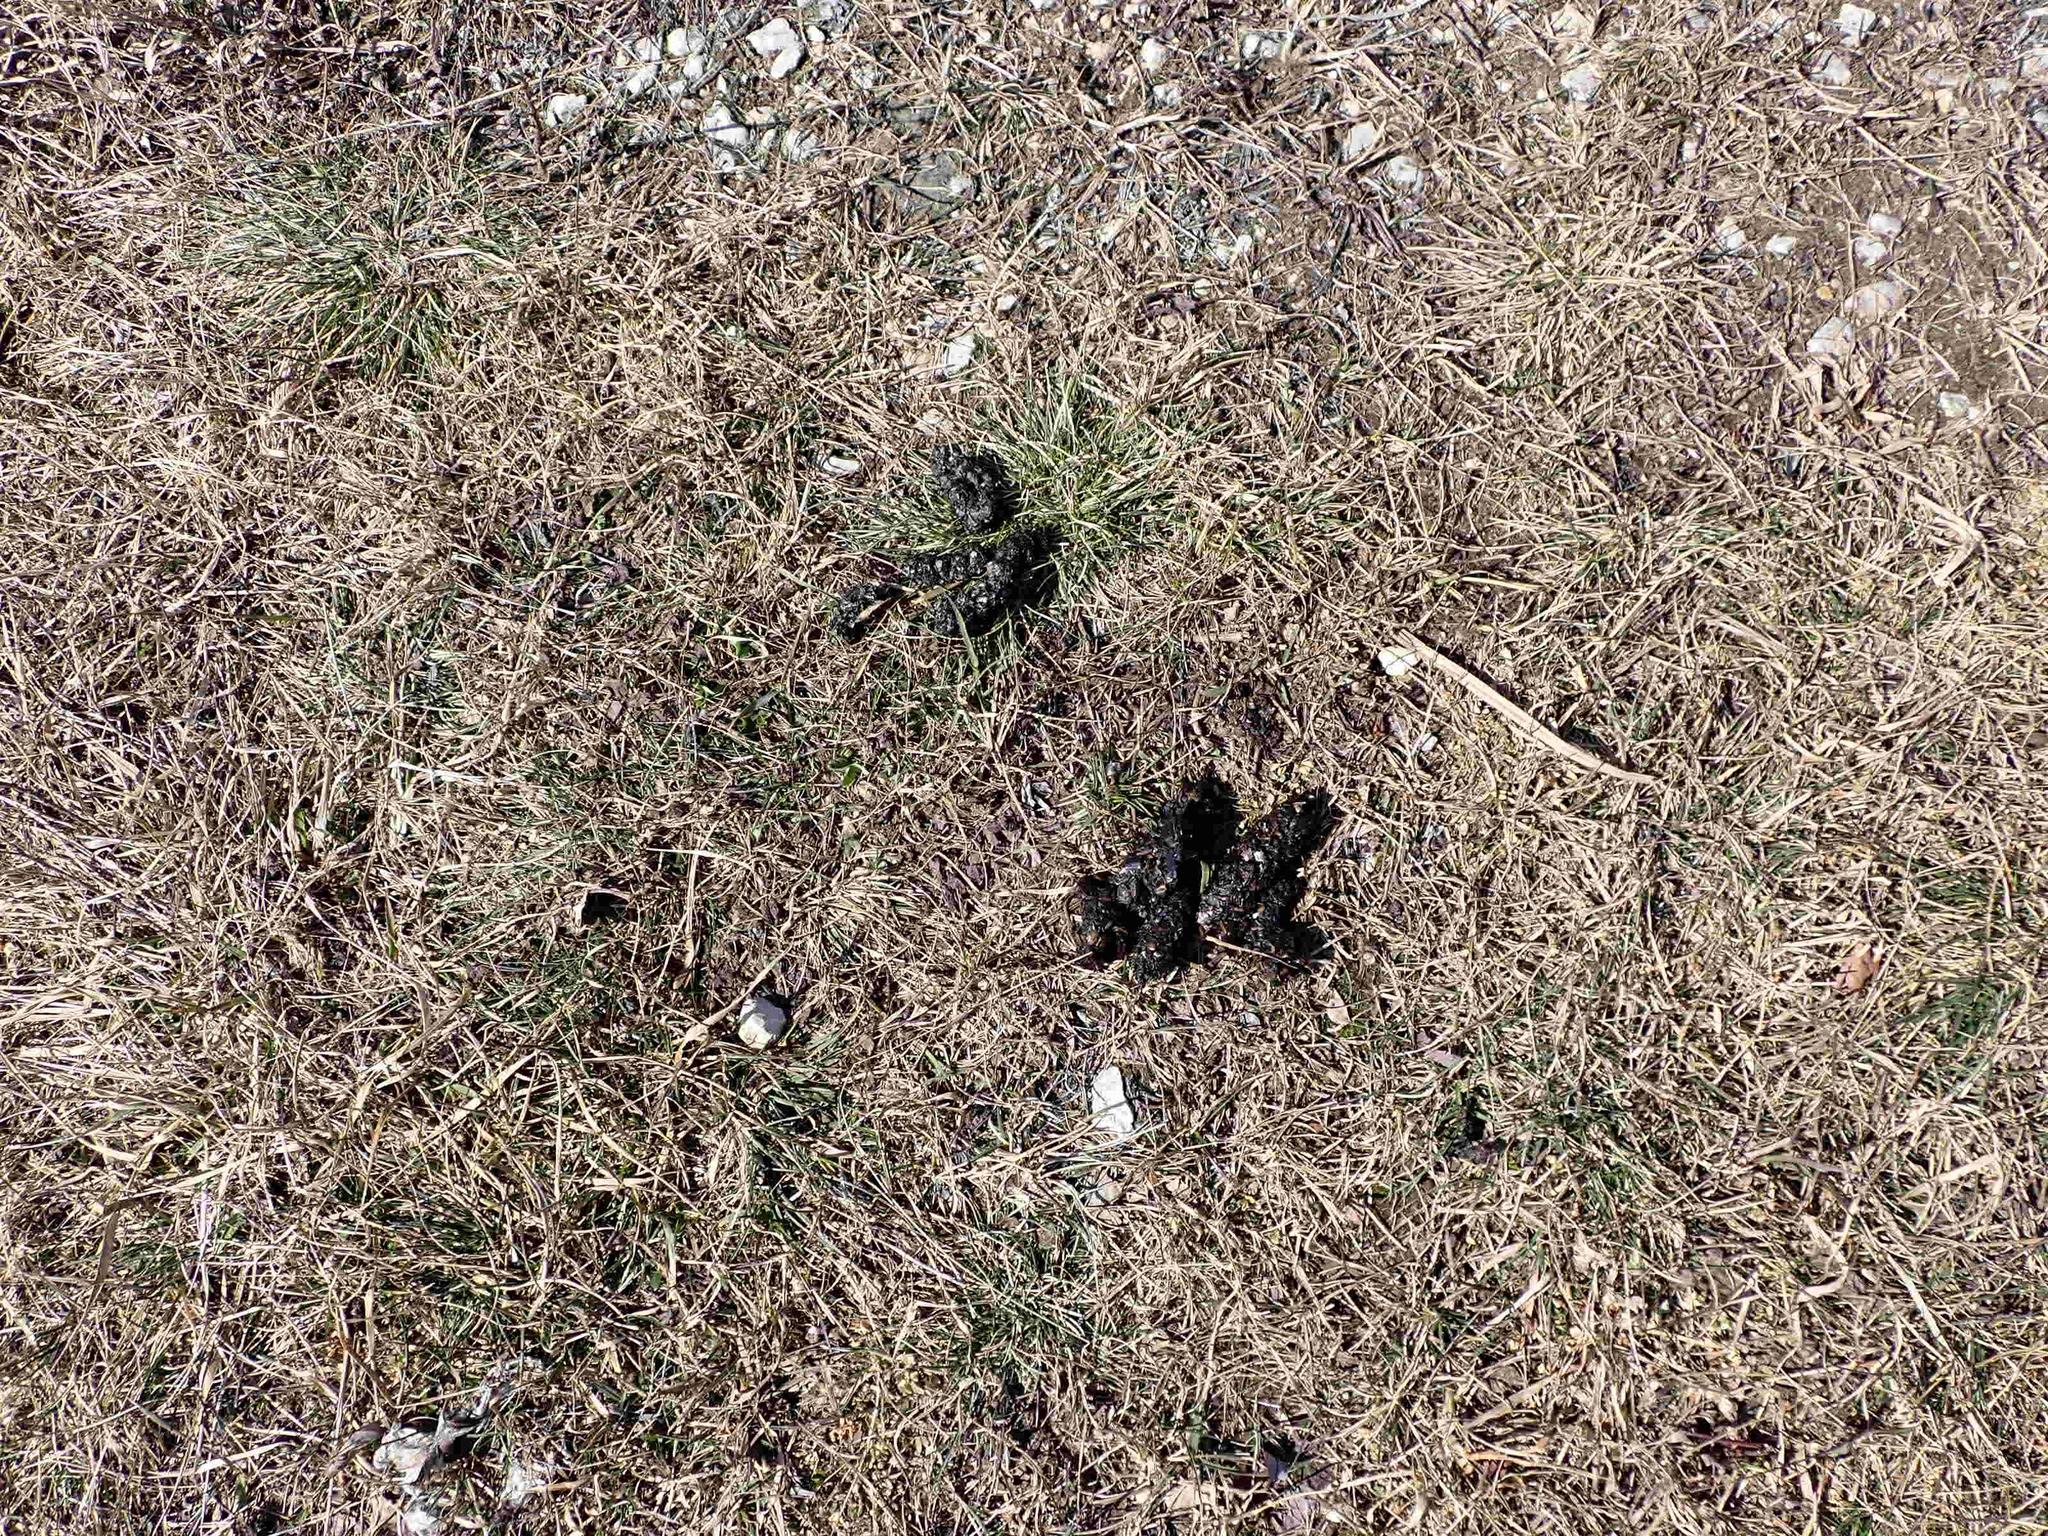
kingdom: Animalia
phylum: Arthropoda
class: Insecta
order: Coleoptera
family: Dytiscidae
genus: Dytiscus
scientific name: Dytiscus
